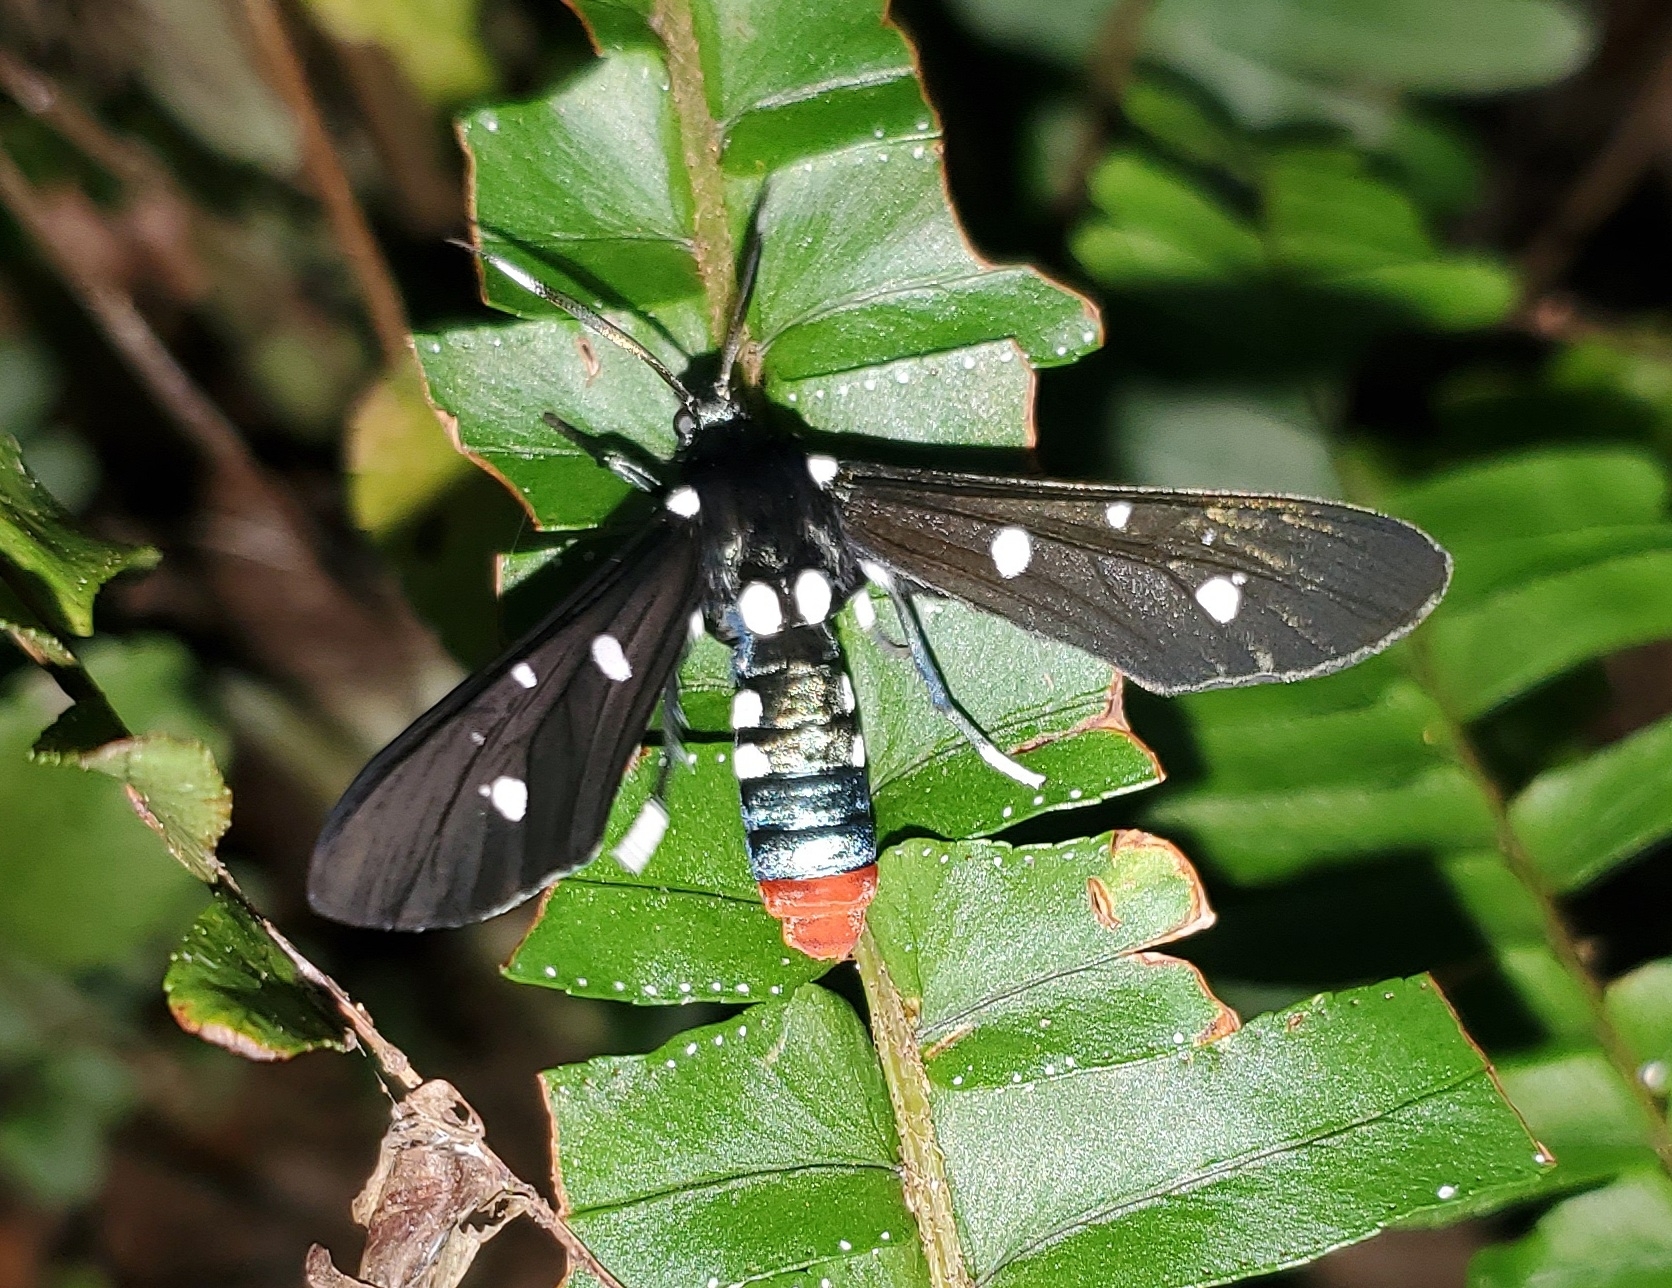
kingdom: Animalia
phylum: Arthropoda
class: Insecta
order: Lepidoptera
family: Erebidae
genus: Syntomeida
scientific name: Syntomeida epilais
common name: Polka-dot wasp moth
